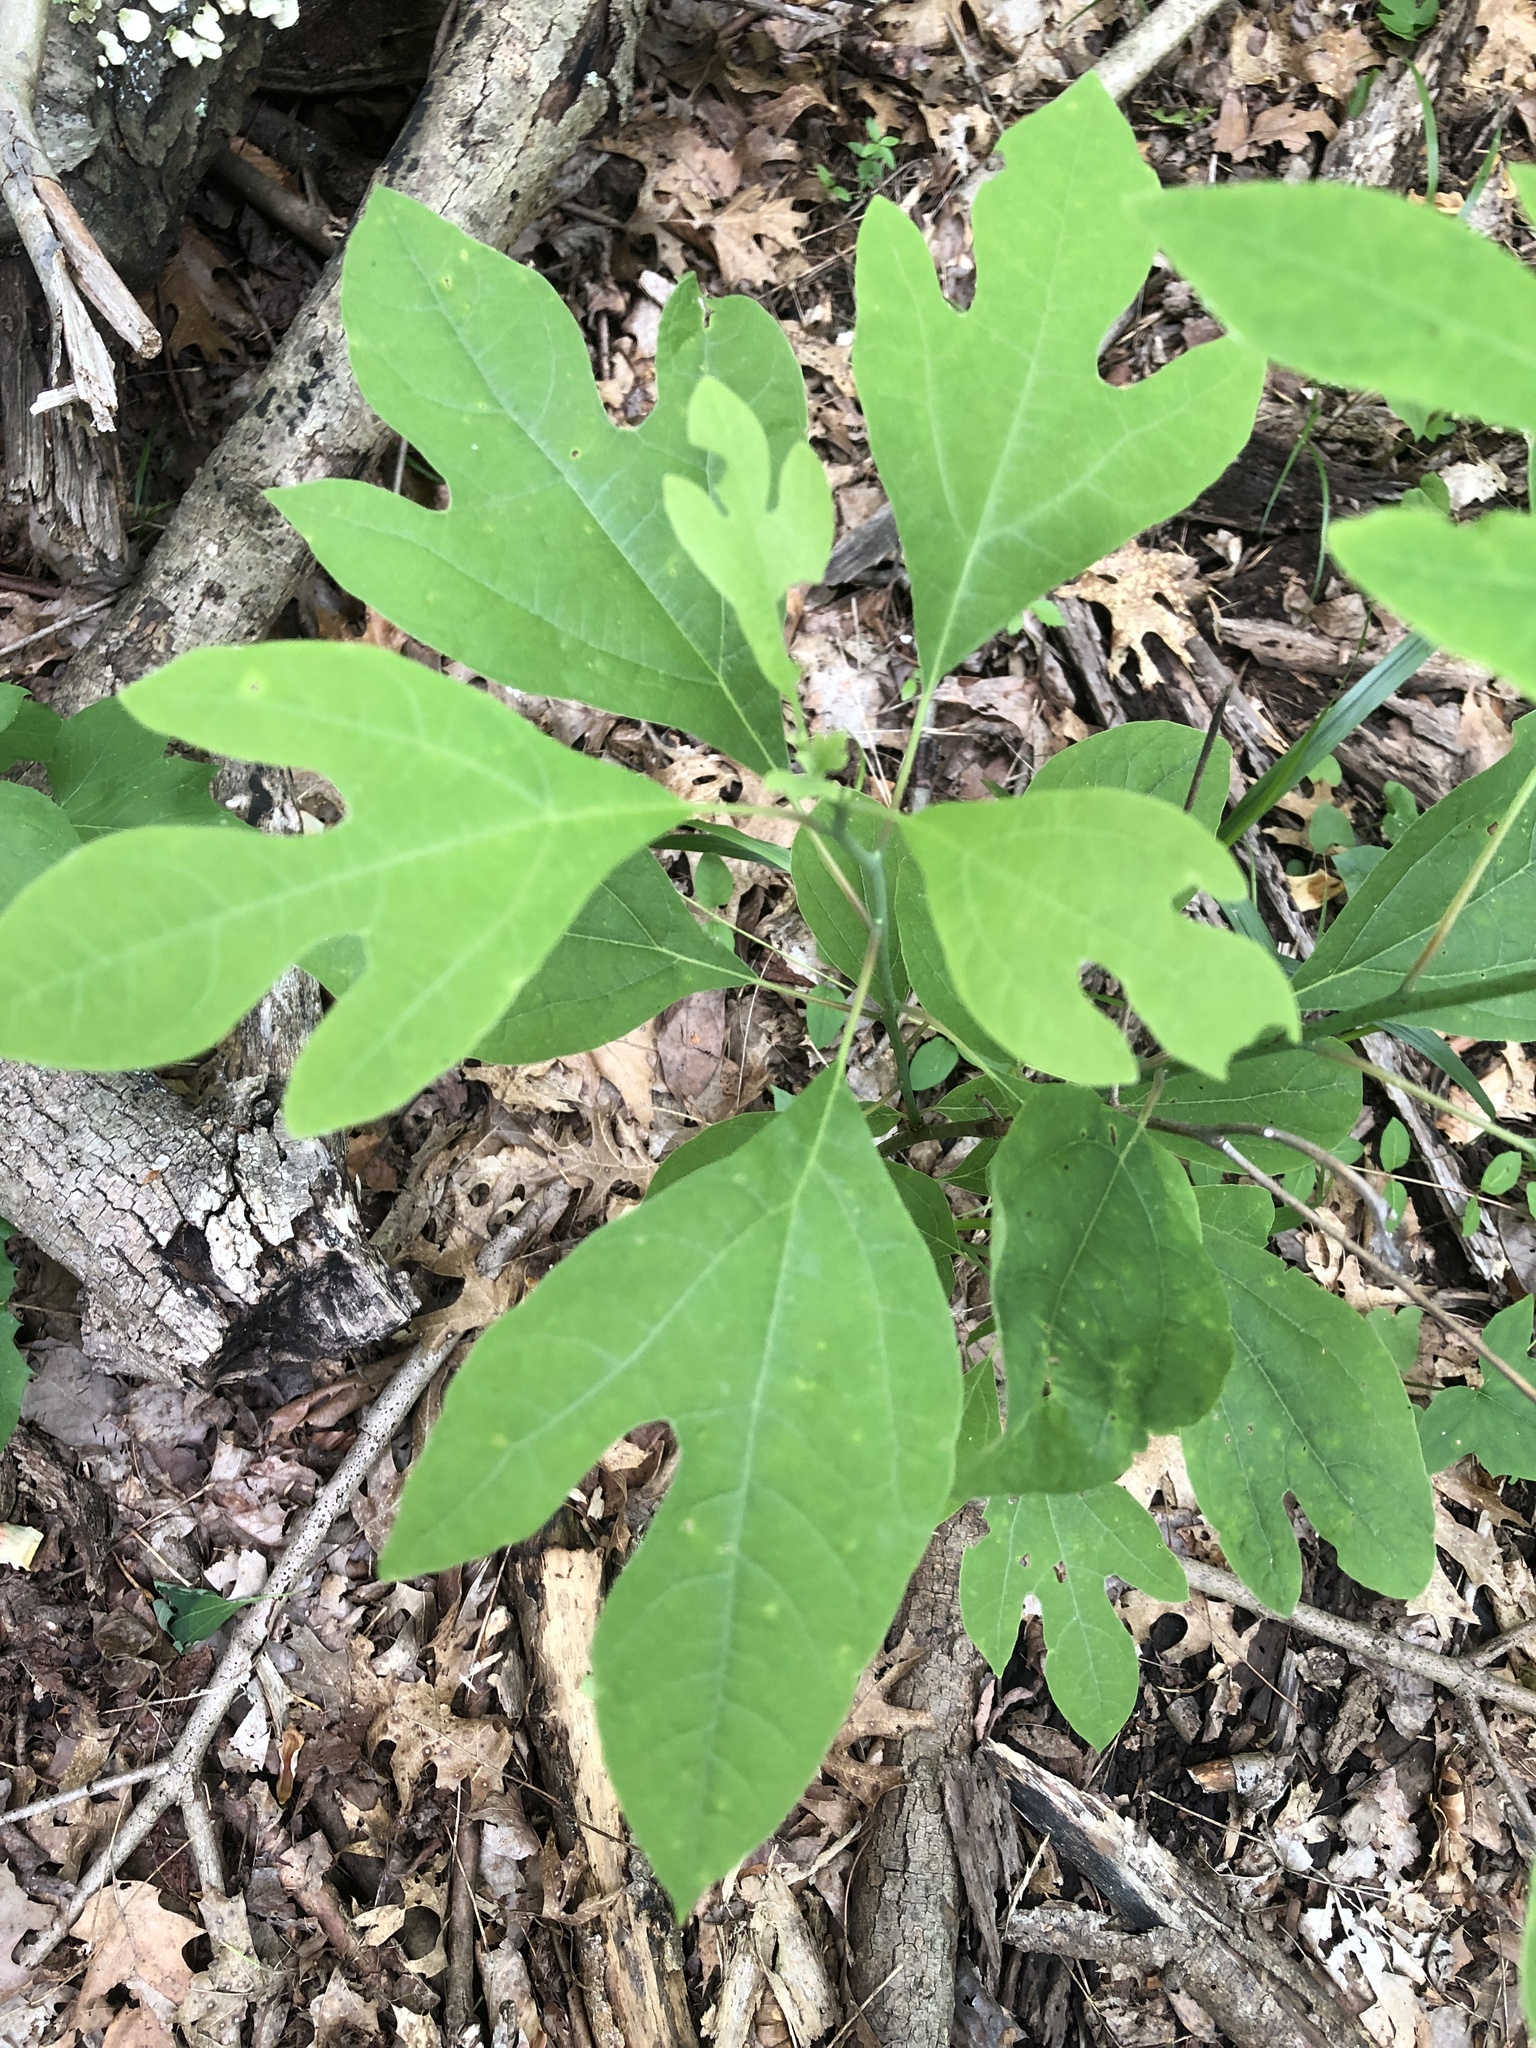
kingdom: Plantae
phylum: Tracheophyta
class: Magnoliopsida
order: Laurales
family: Lauraceae
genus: Sassafras
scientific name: Sassafras albidum
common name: Sassafras
